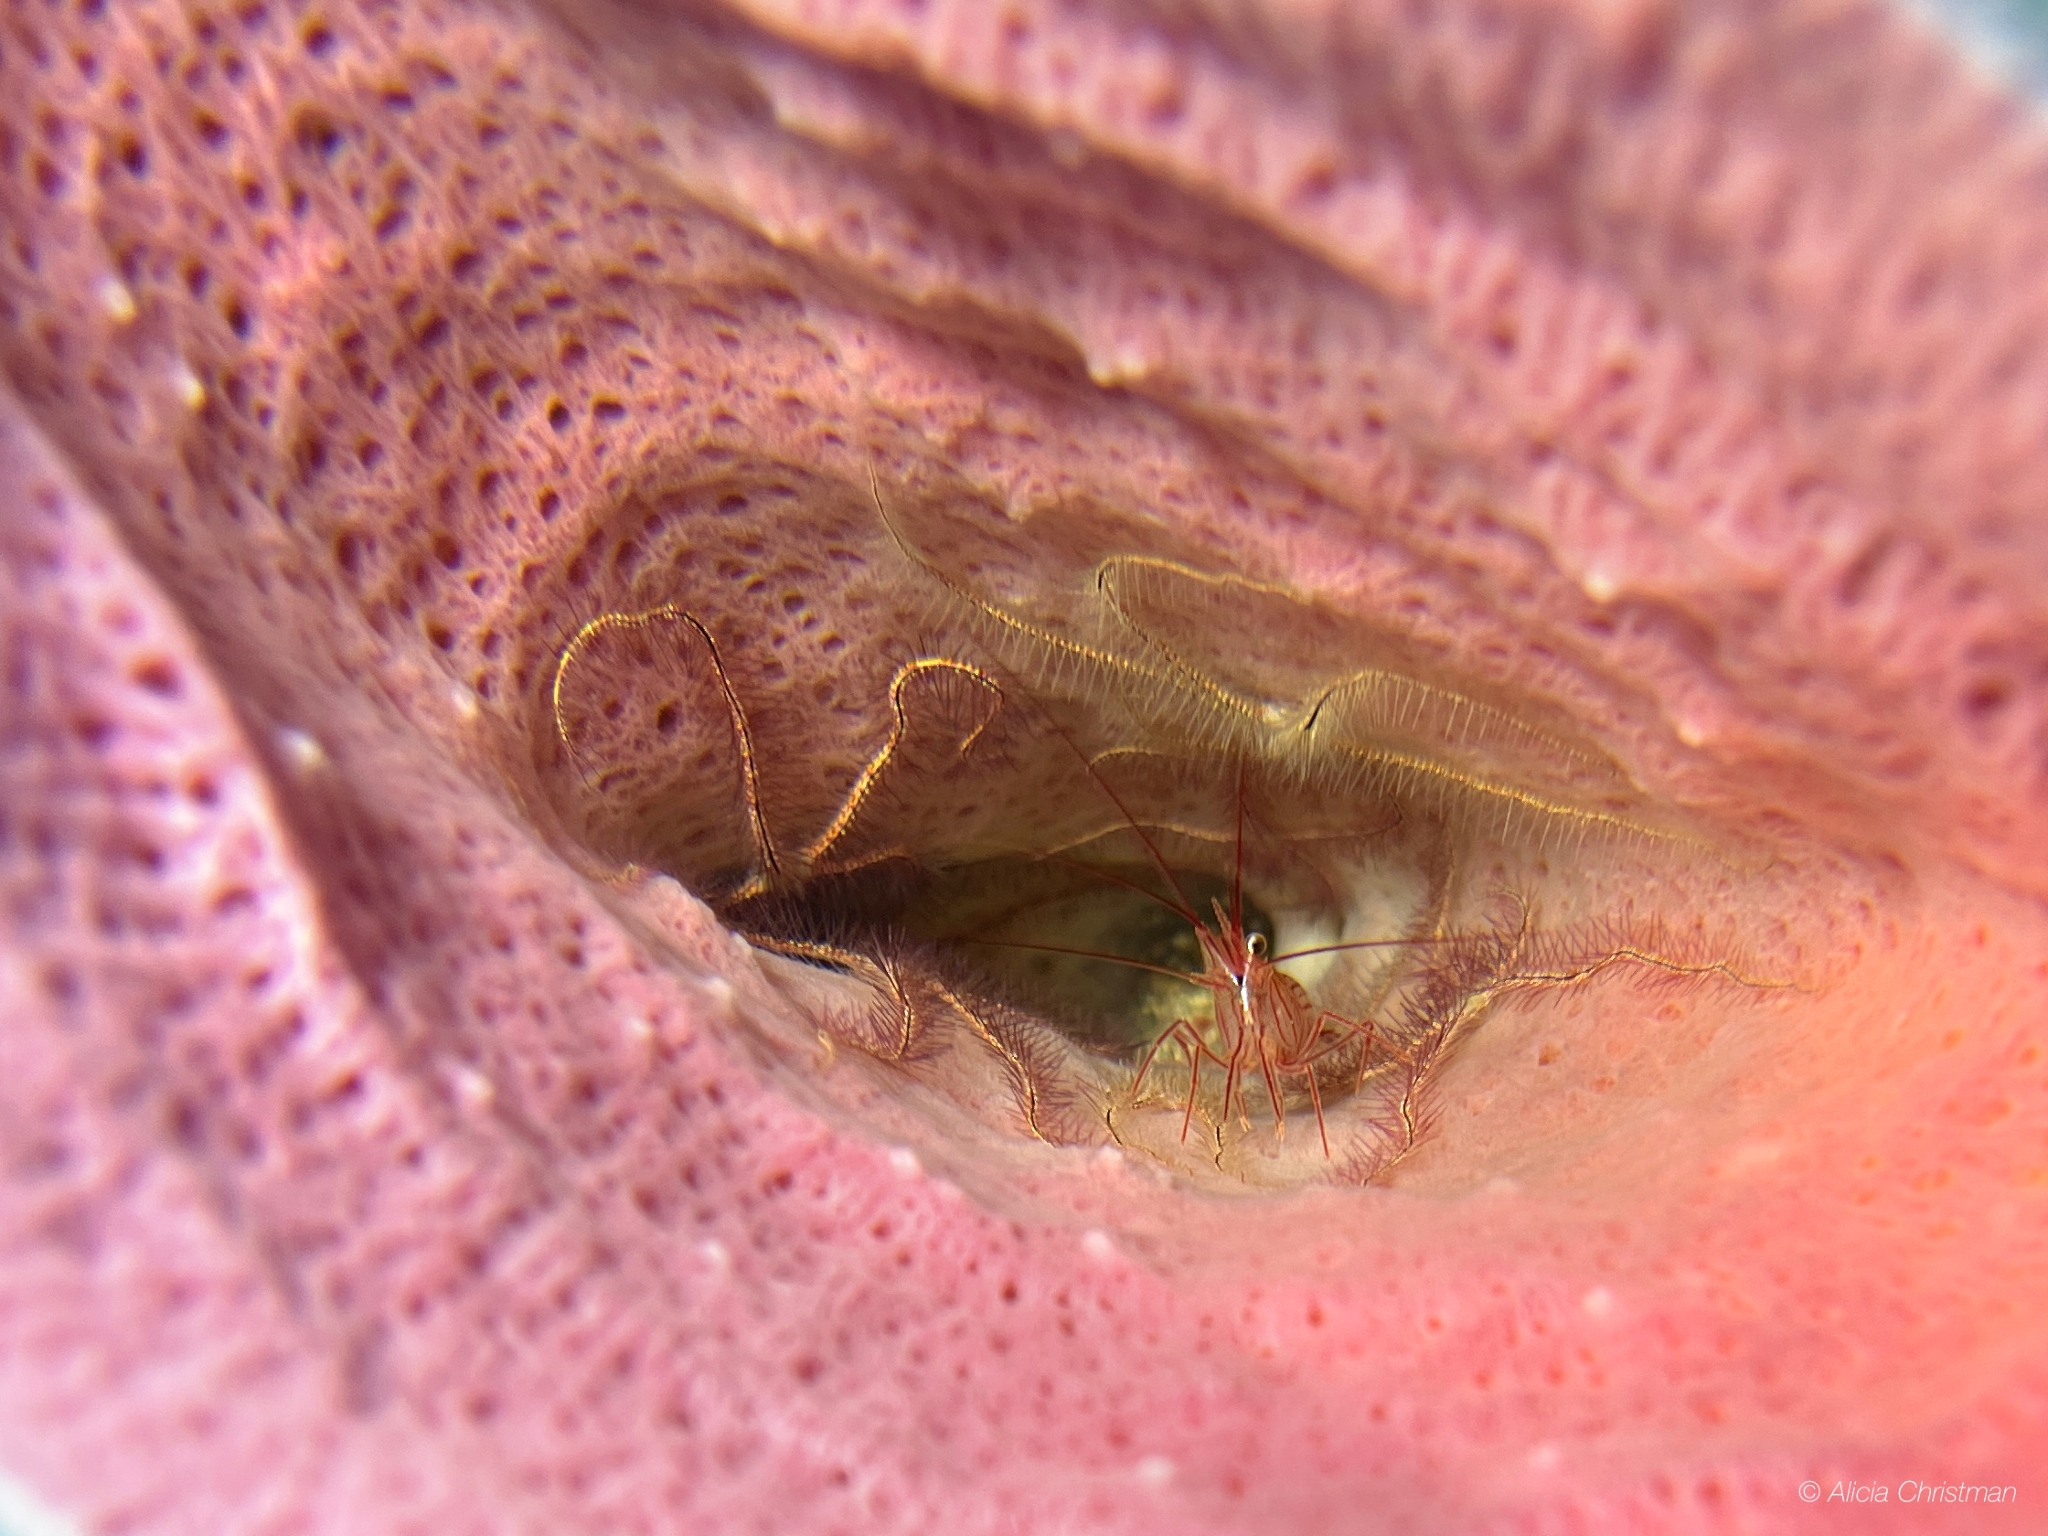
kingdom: Animalia
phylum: Arthropoda
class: Malacostraca
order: Decapoda
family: Lysmatidae
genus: Lysmata
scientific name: Lysmata pederseni
